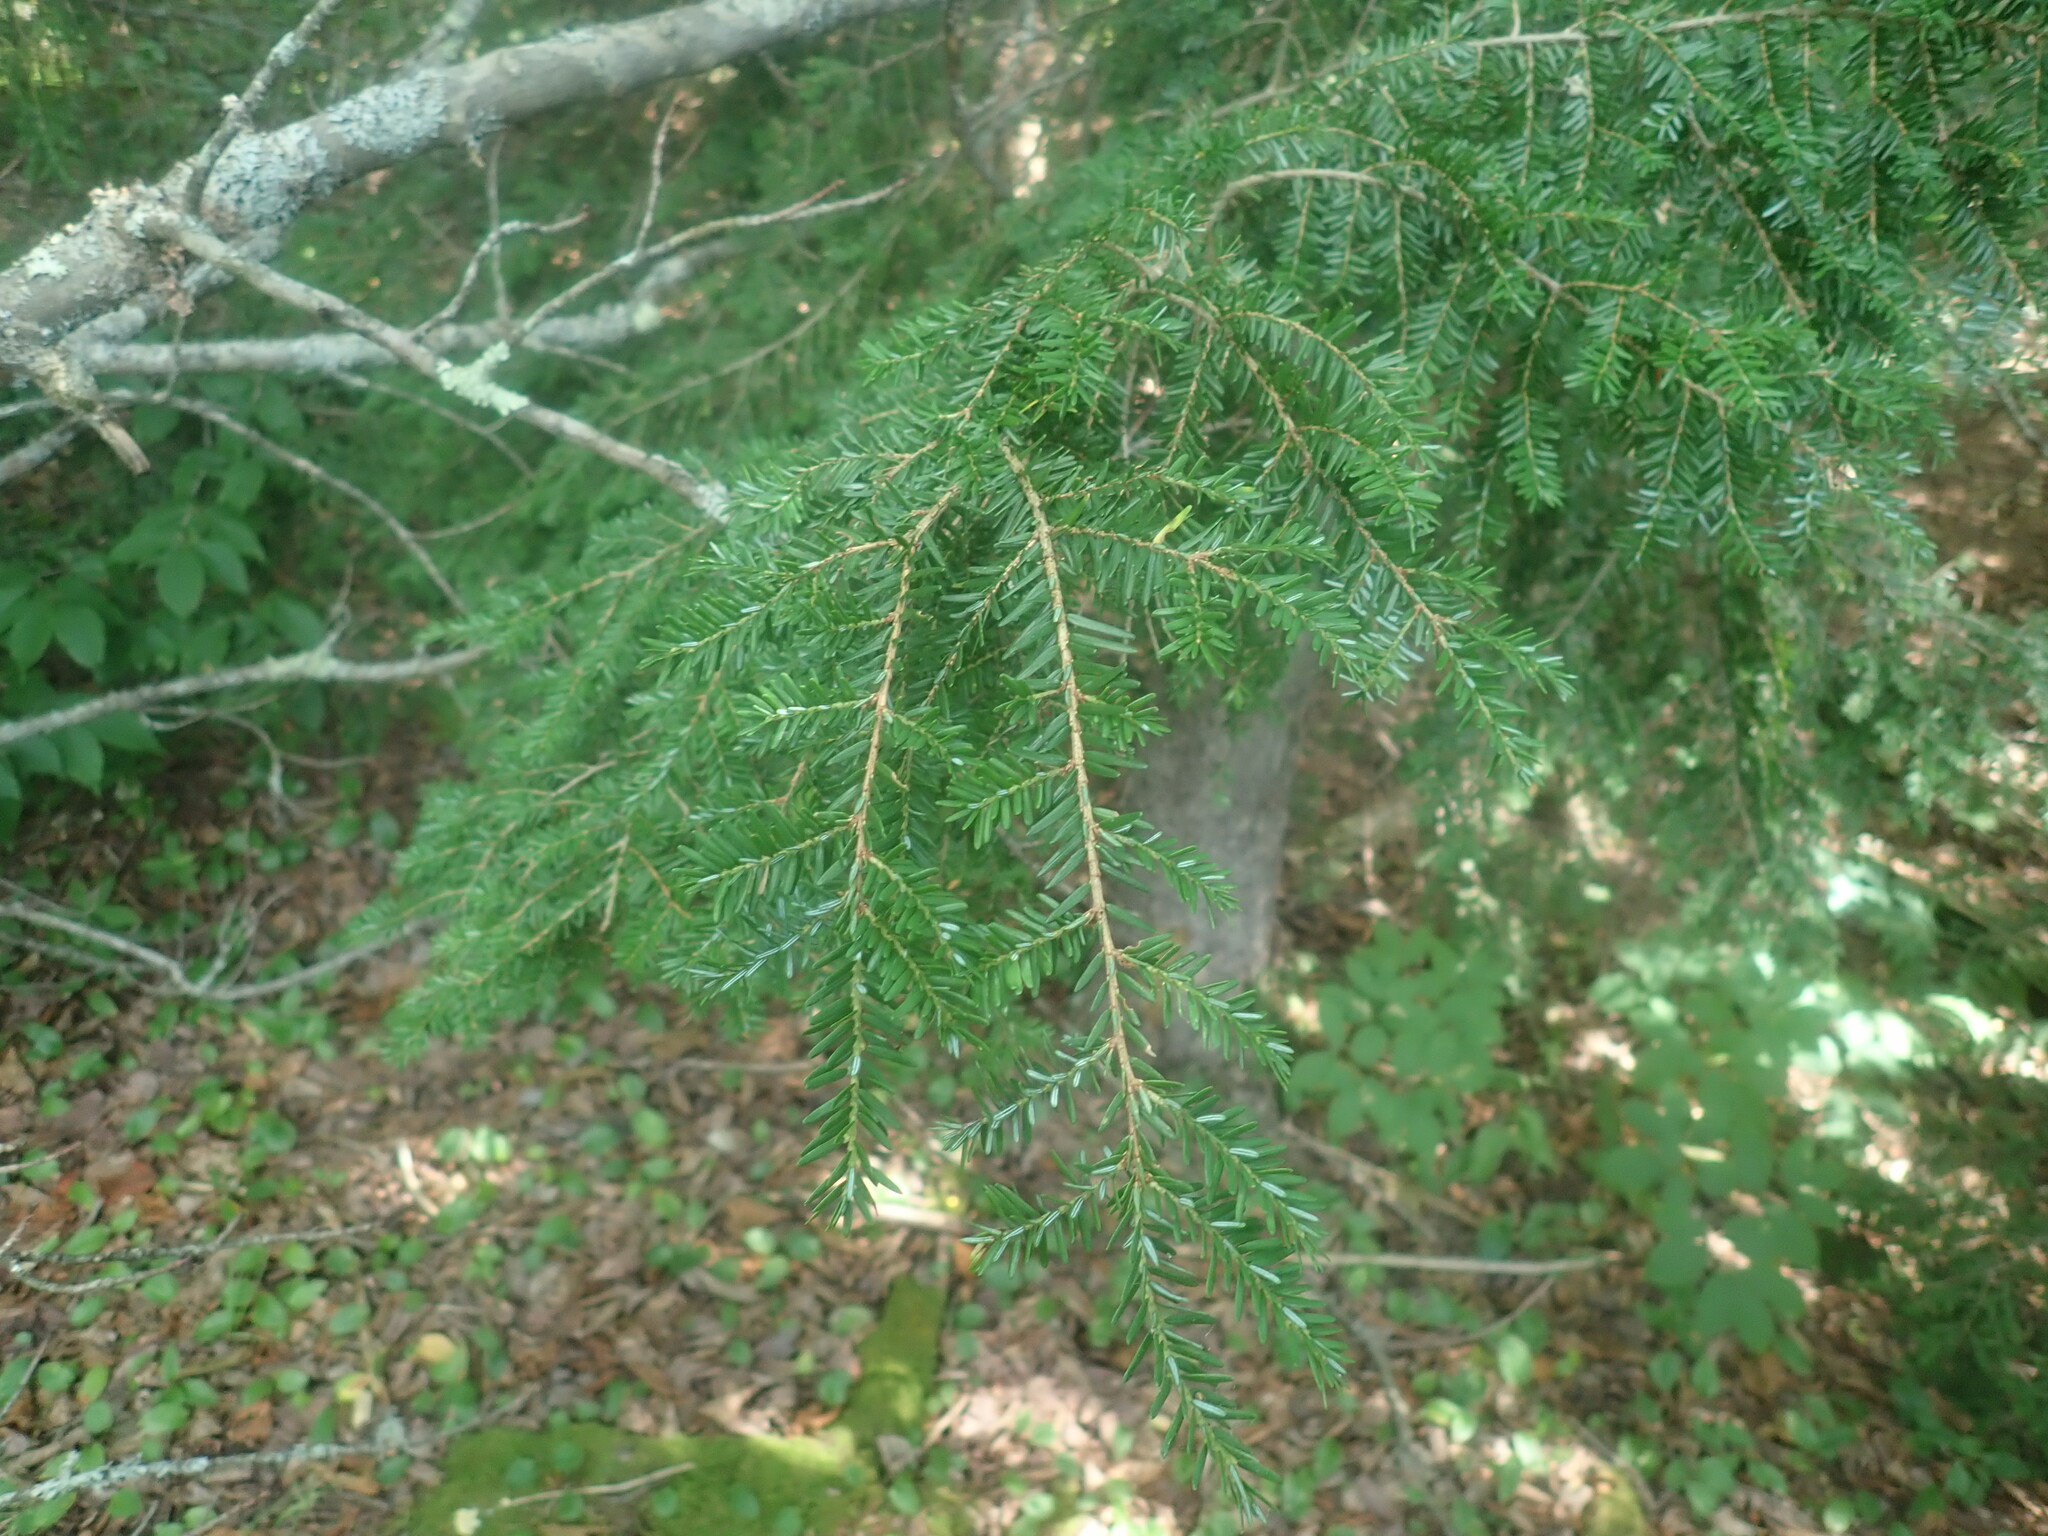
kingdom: Plantae
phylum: Tracheophyta
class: Pinopsida
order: Pinales
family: Pinaceae
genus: Tsuga
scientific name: Tsuga canadensis
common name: Eastern hemlock
